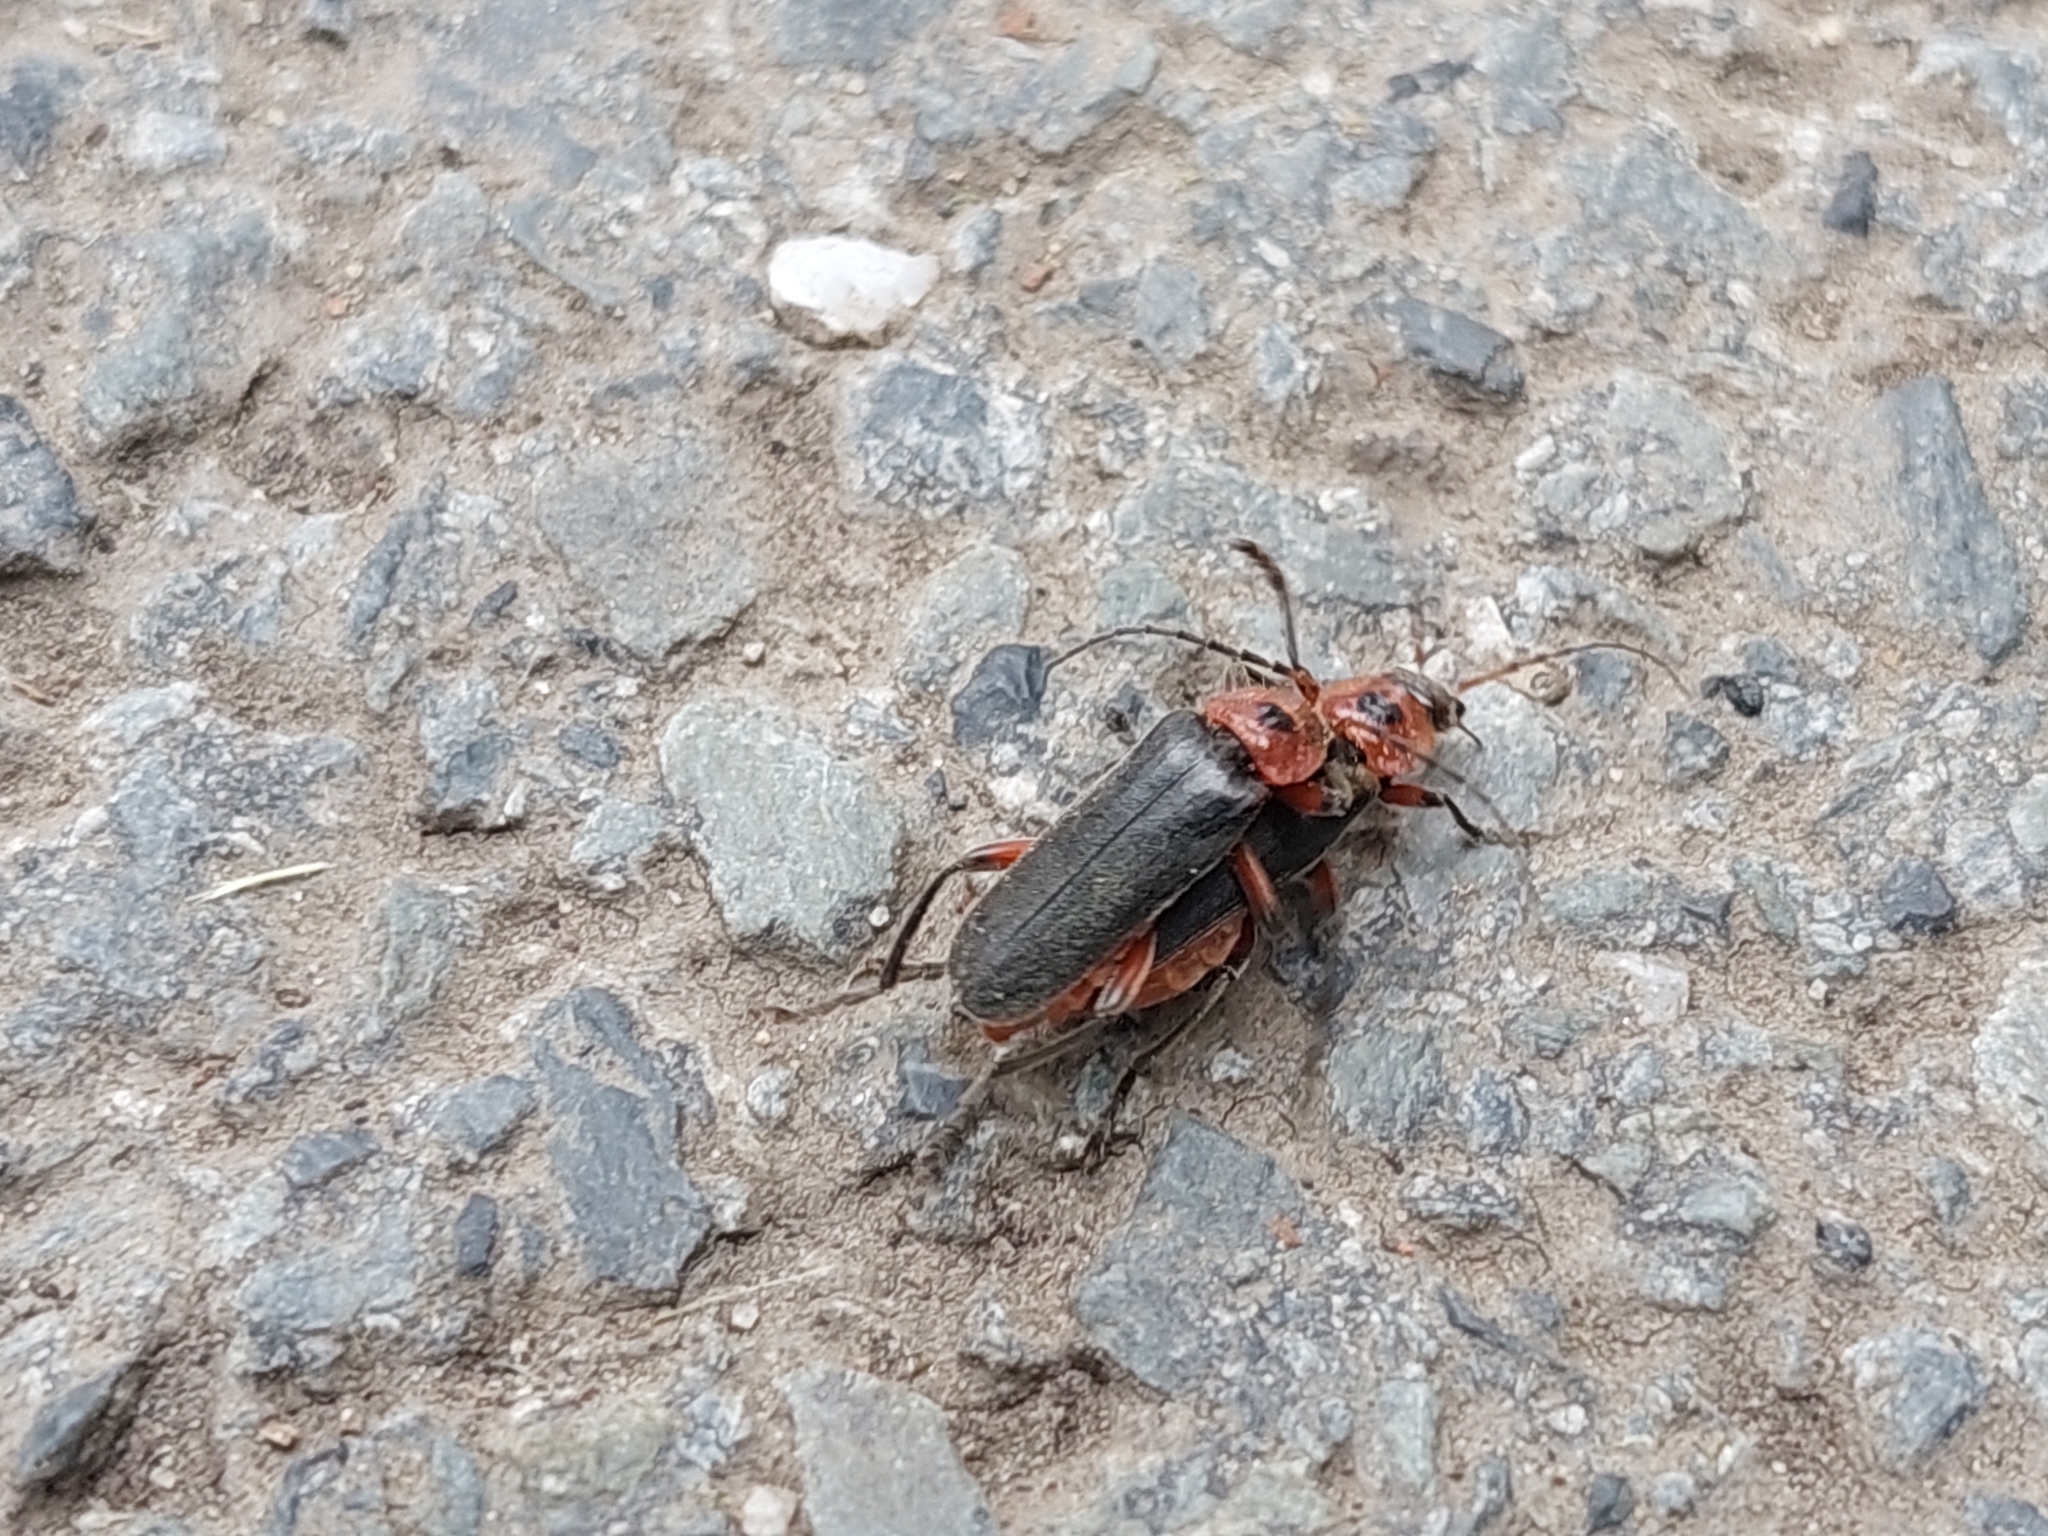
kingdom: Animalia
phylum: Arthropoda
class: Insecta
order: Coleoptera
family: Cantharidae
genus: Cantharis
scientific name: Cantharis rustica
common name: Soldier beetle
